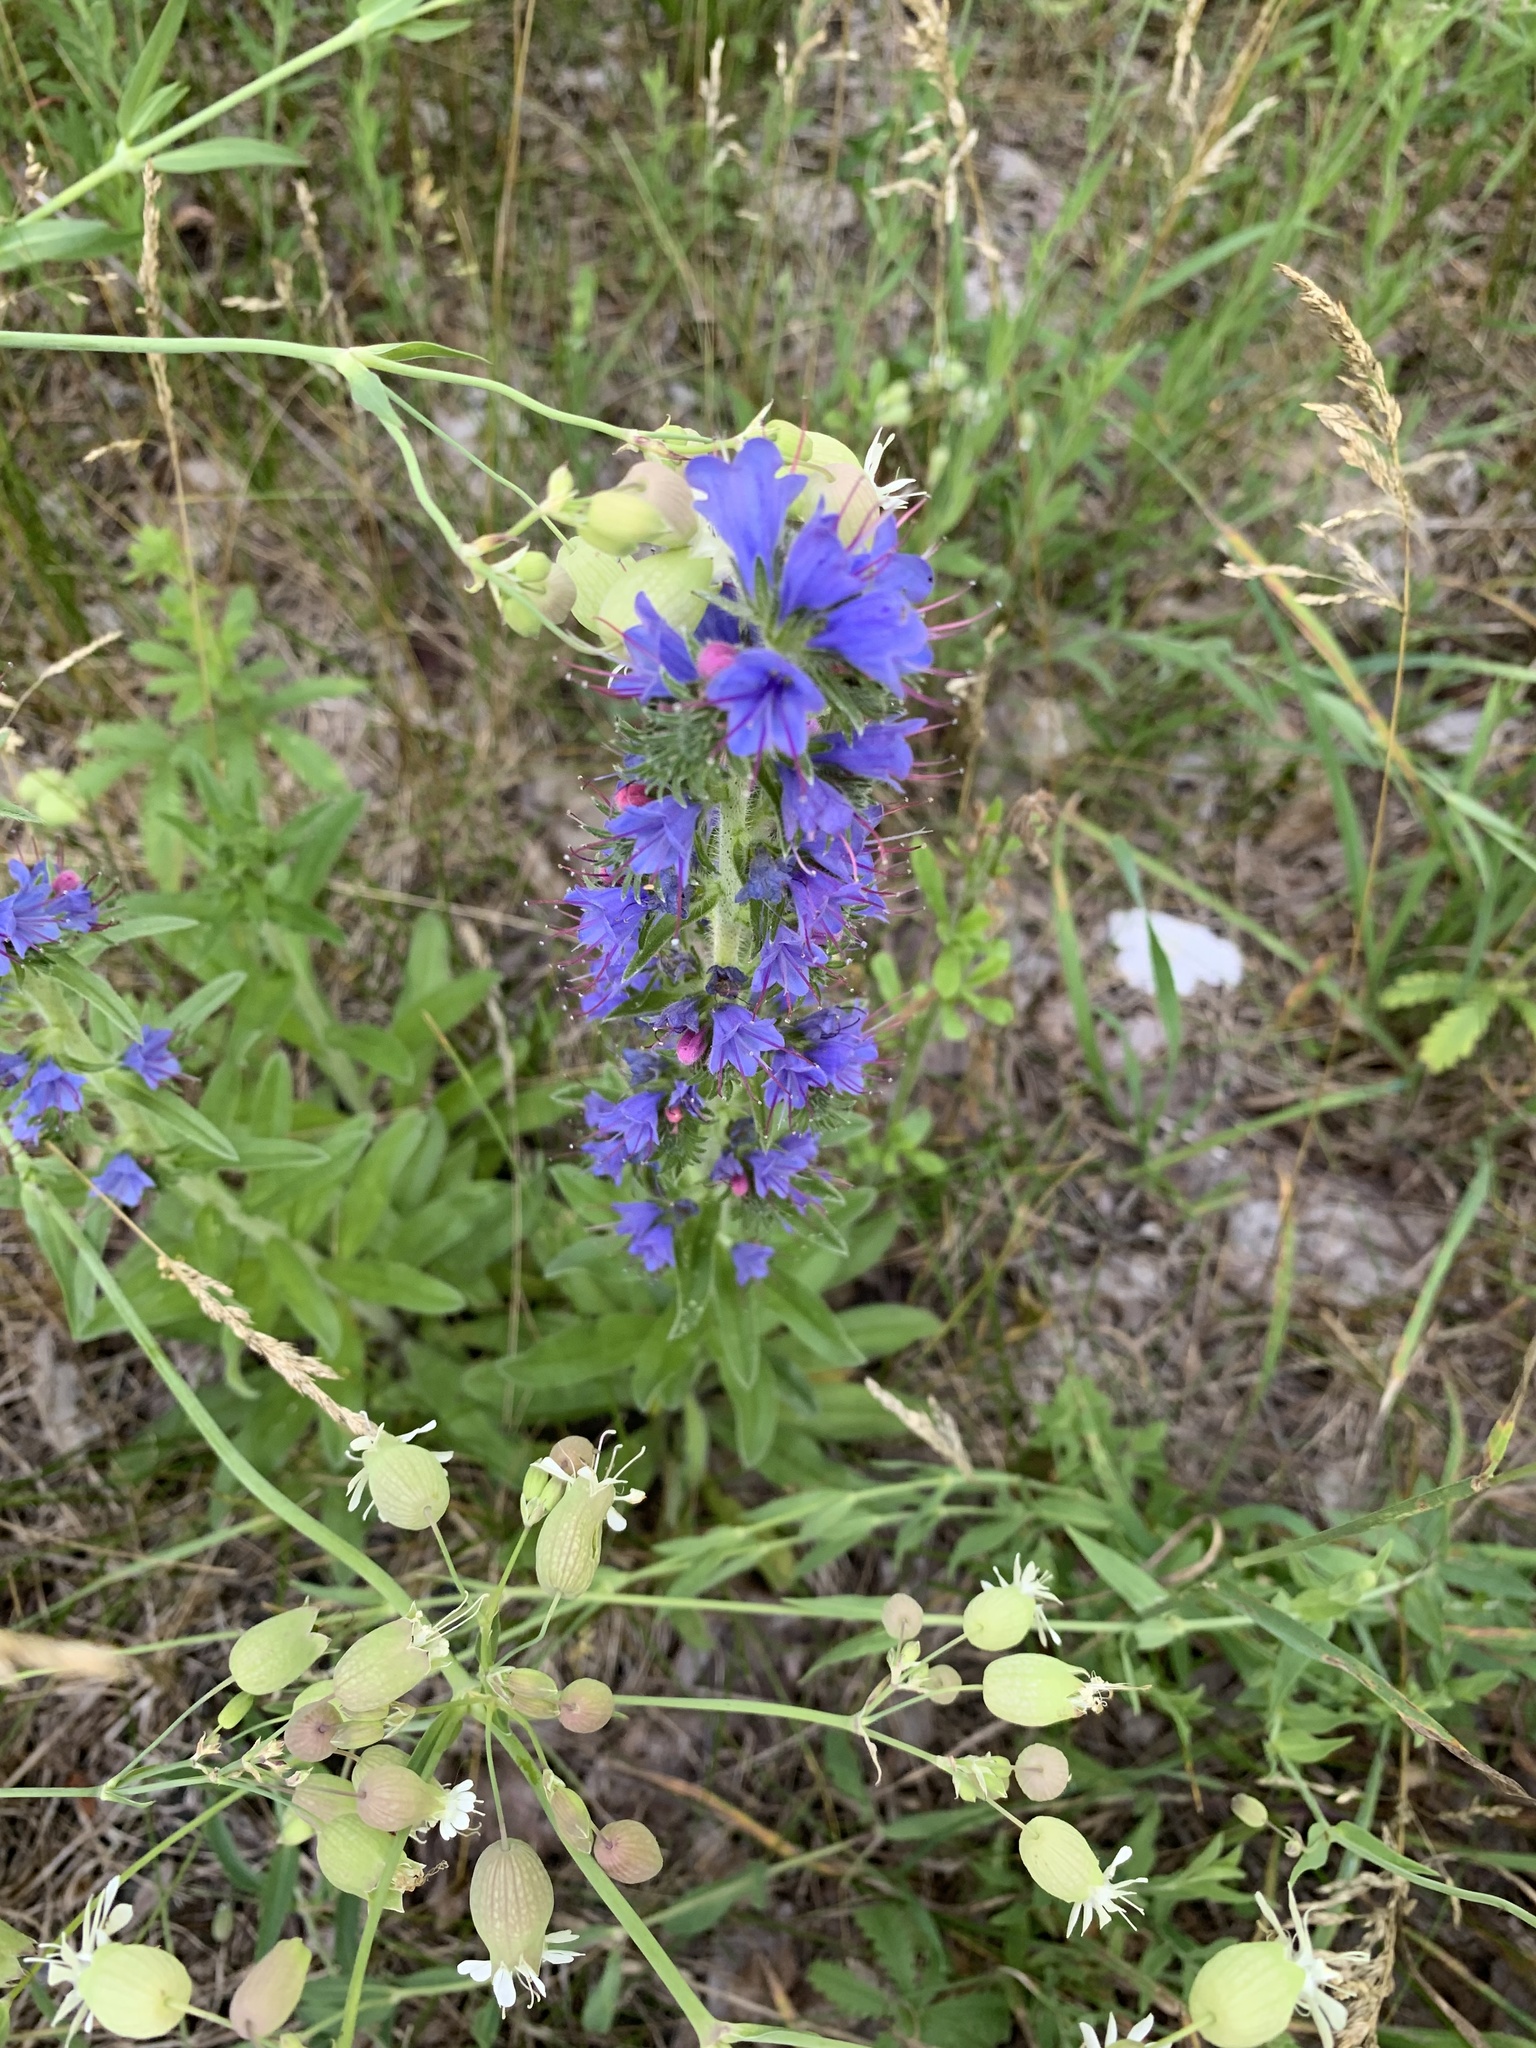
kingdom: Plantae
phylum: Tracheophyta
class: Magnoliopsida
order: Boraginales
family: Boraginaceae
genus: Echium
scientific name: Echium vulgare
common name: Common viper's bugloss
